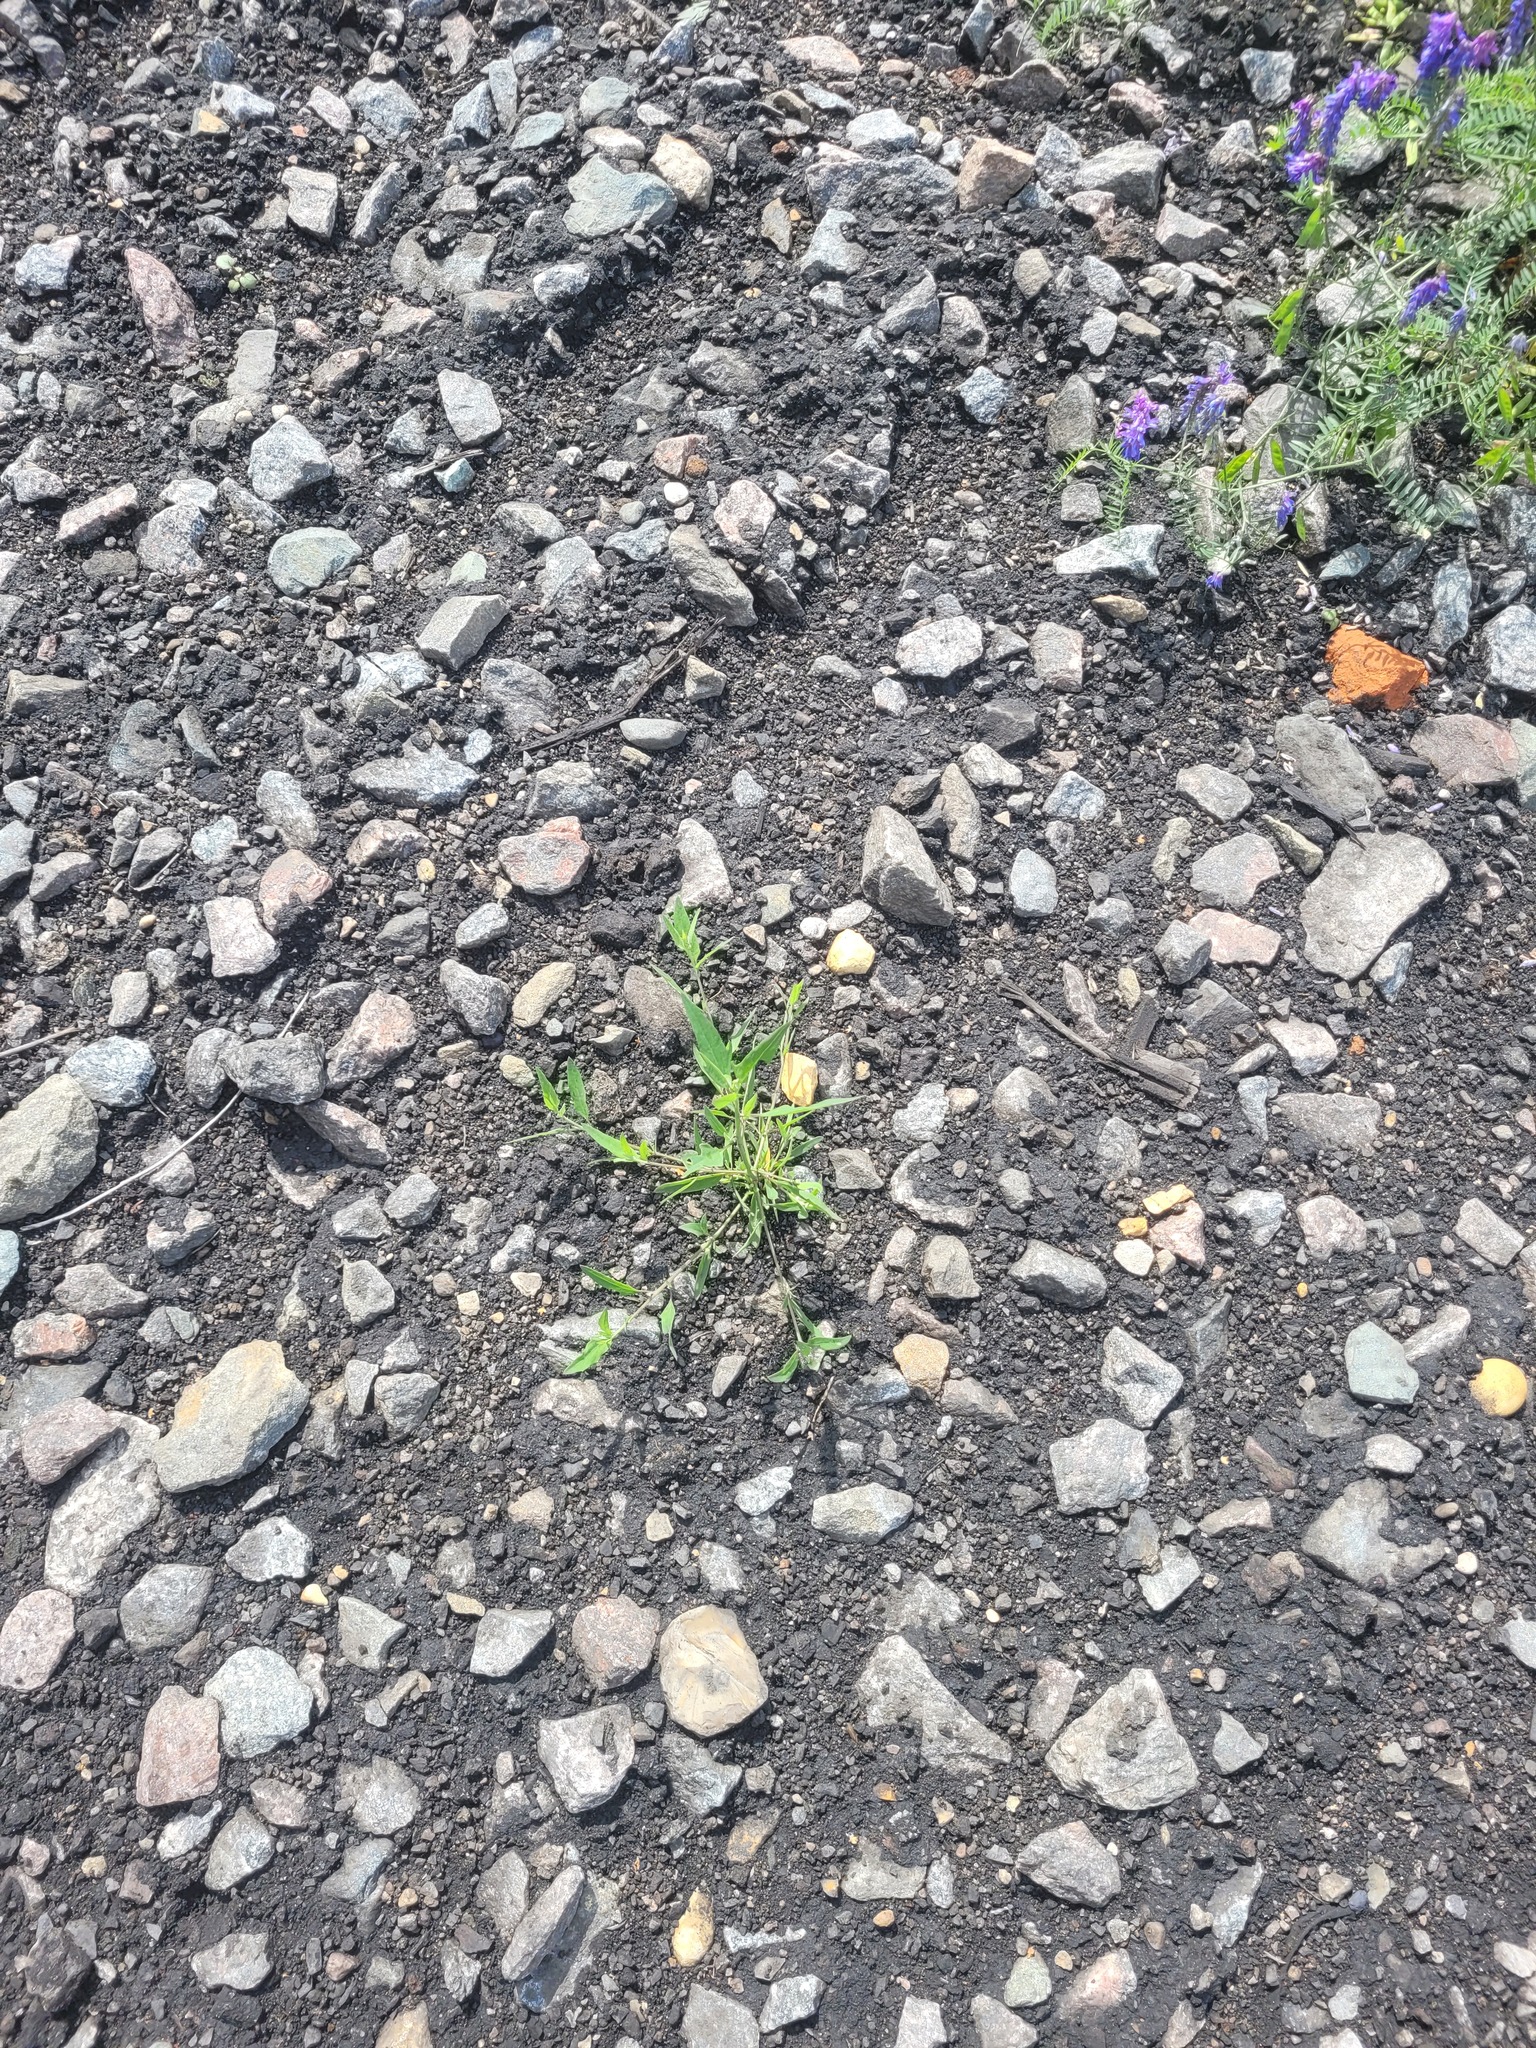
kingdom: Plantae
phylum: Tracheophyta
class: Magnoliopsida
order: Caryophyllales
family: Amaranthaceae
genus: Atriplex
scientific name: Atriplex patula
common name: Common orache
